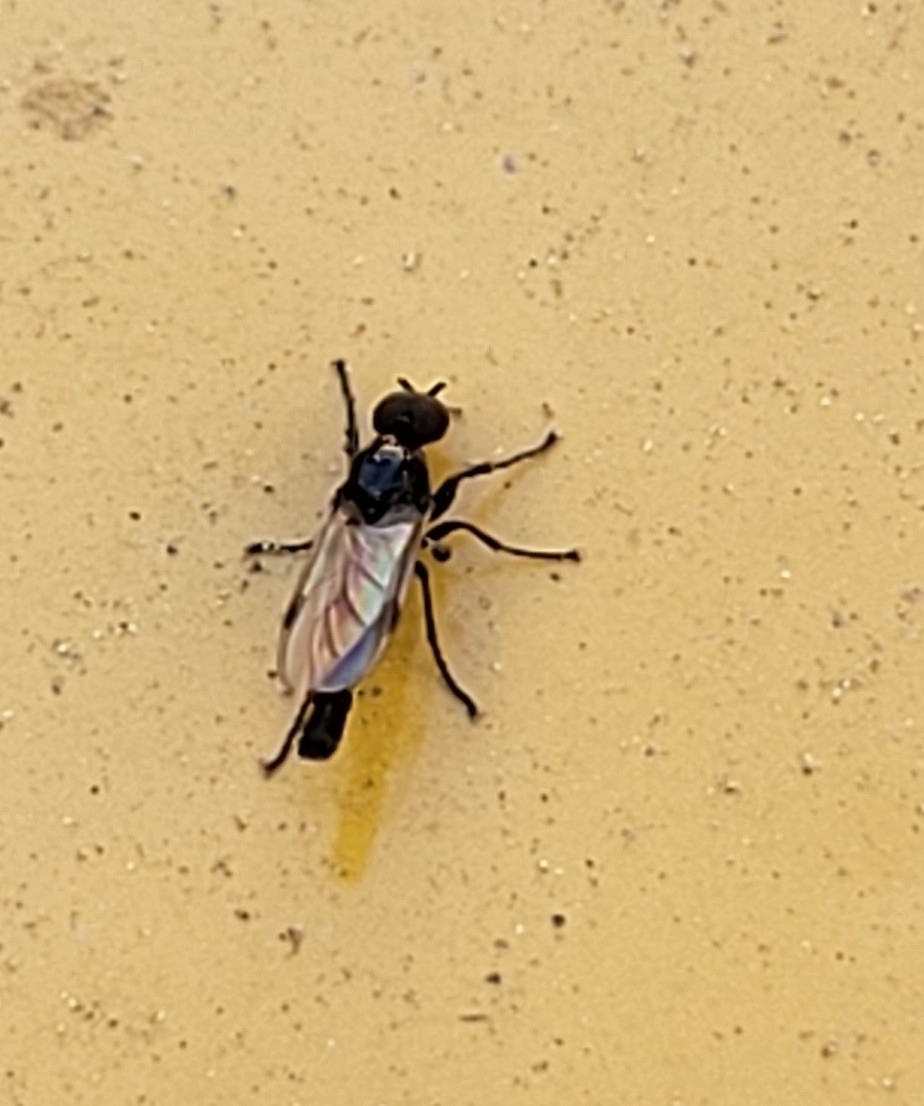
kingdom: Animalia
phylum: Arthropoda
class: Insecta
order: Diptera
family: Bibionidae
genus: Dilophus
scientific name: Dilophus
